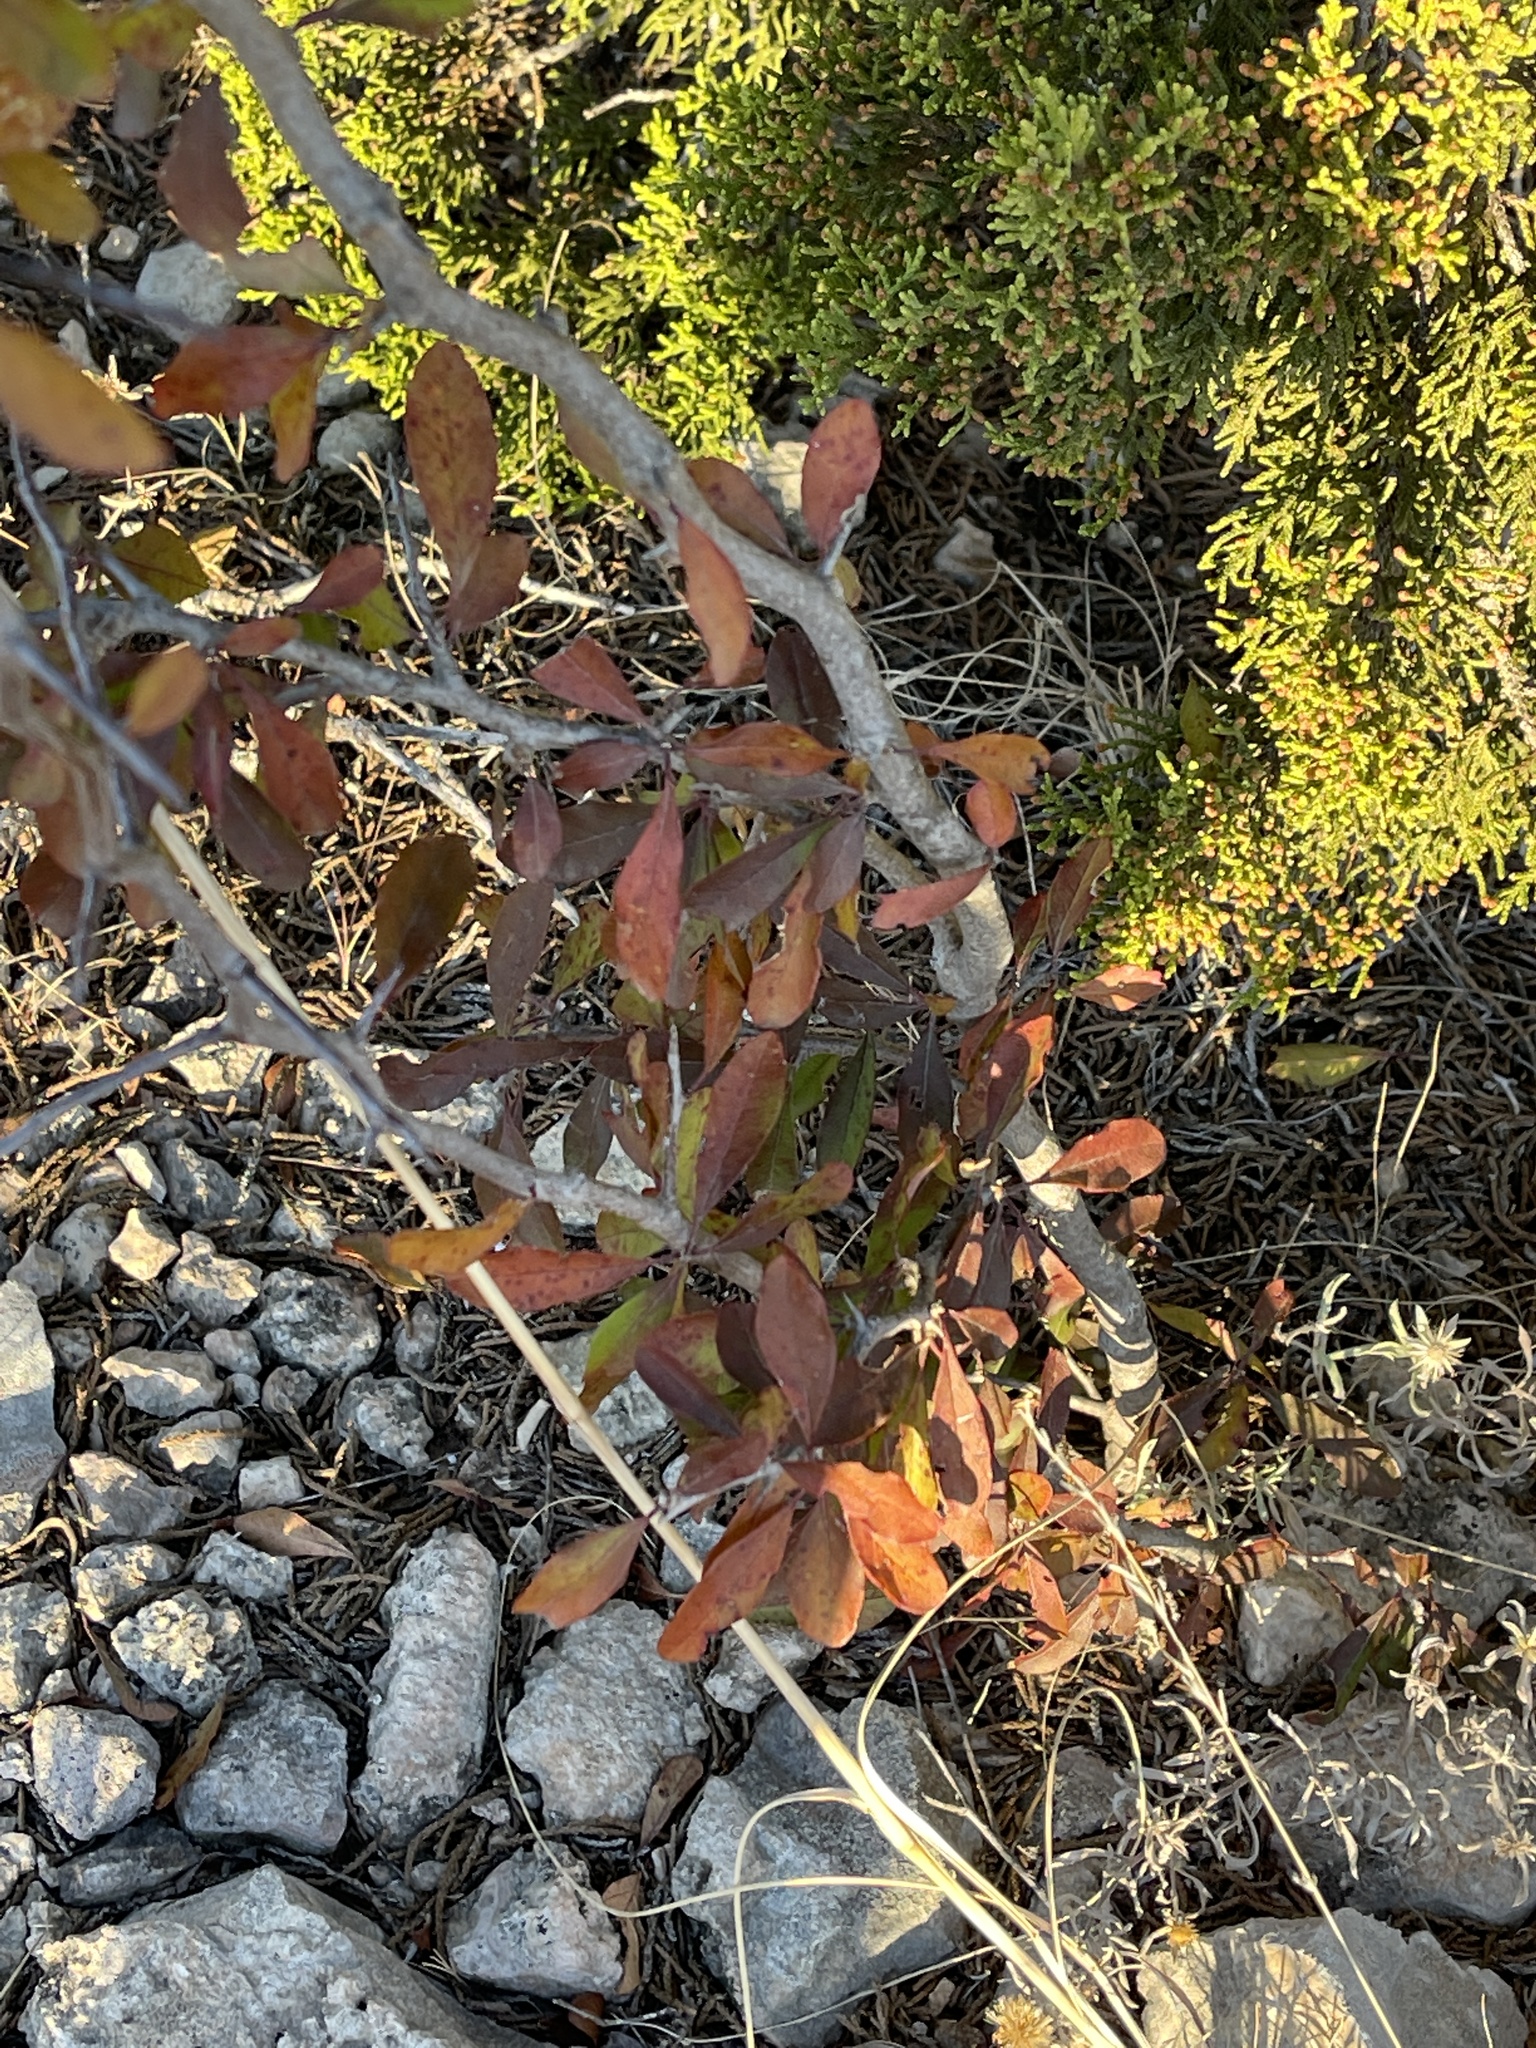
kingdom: Plantae
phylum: Tracheophyta
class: Magnoliopsida
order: Ericales
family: Sapotaceae
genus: Sideroxylon
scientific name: Sideroxylon lanuginosum
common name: Chittamwood
